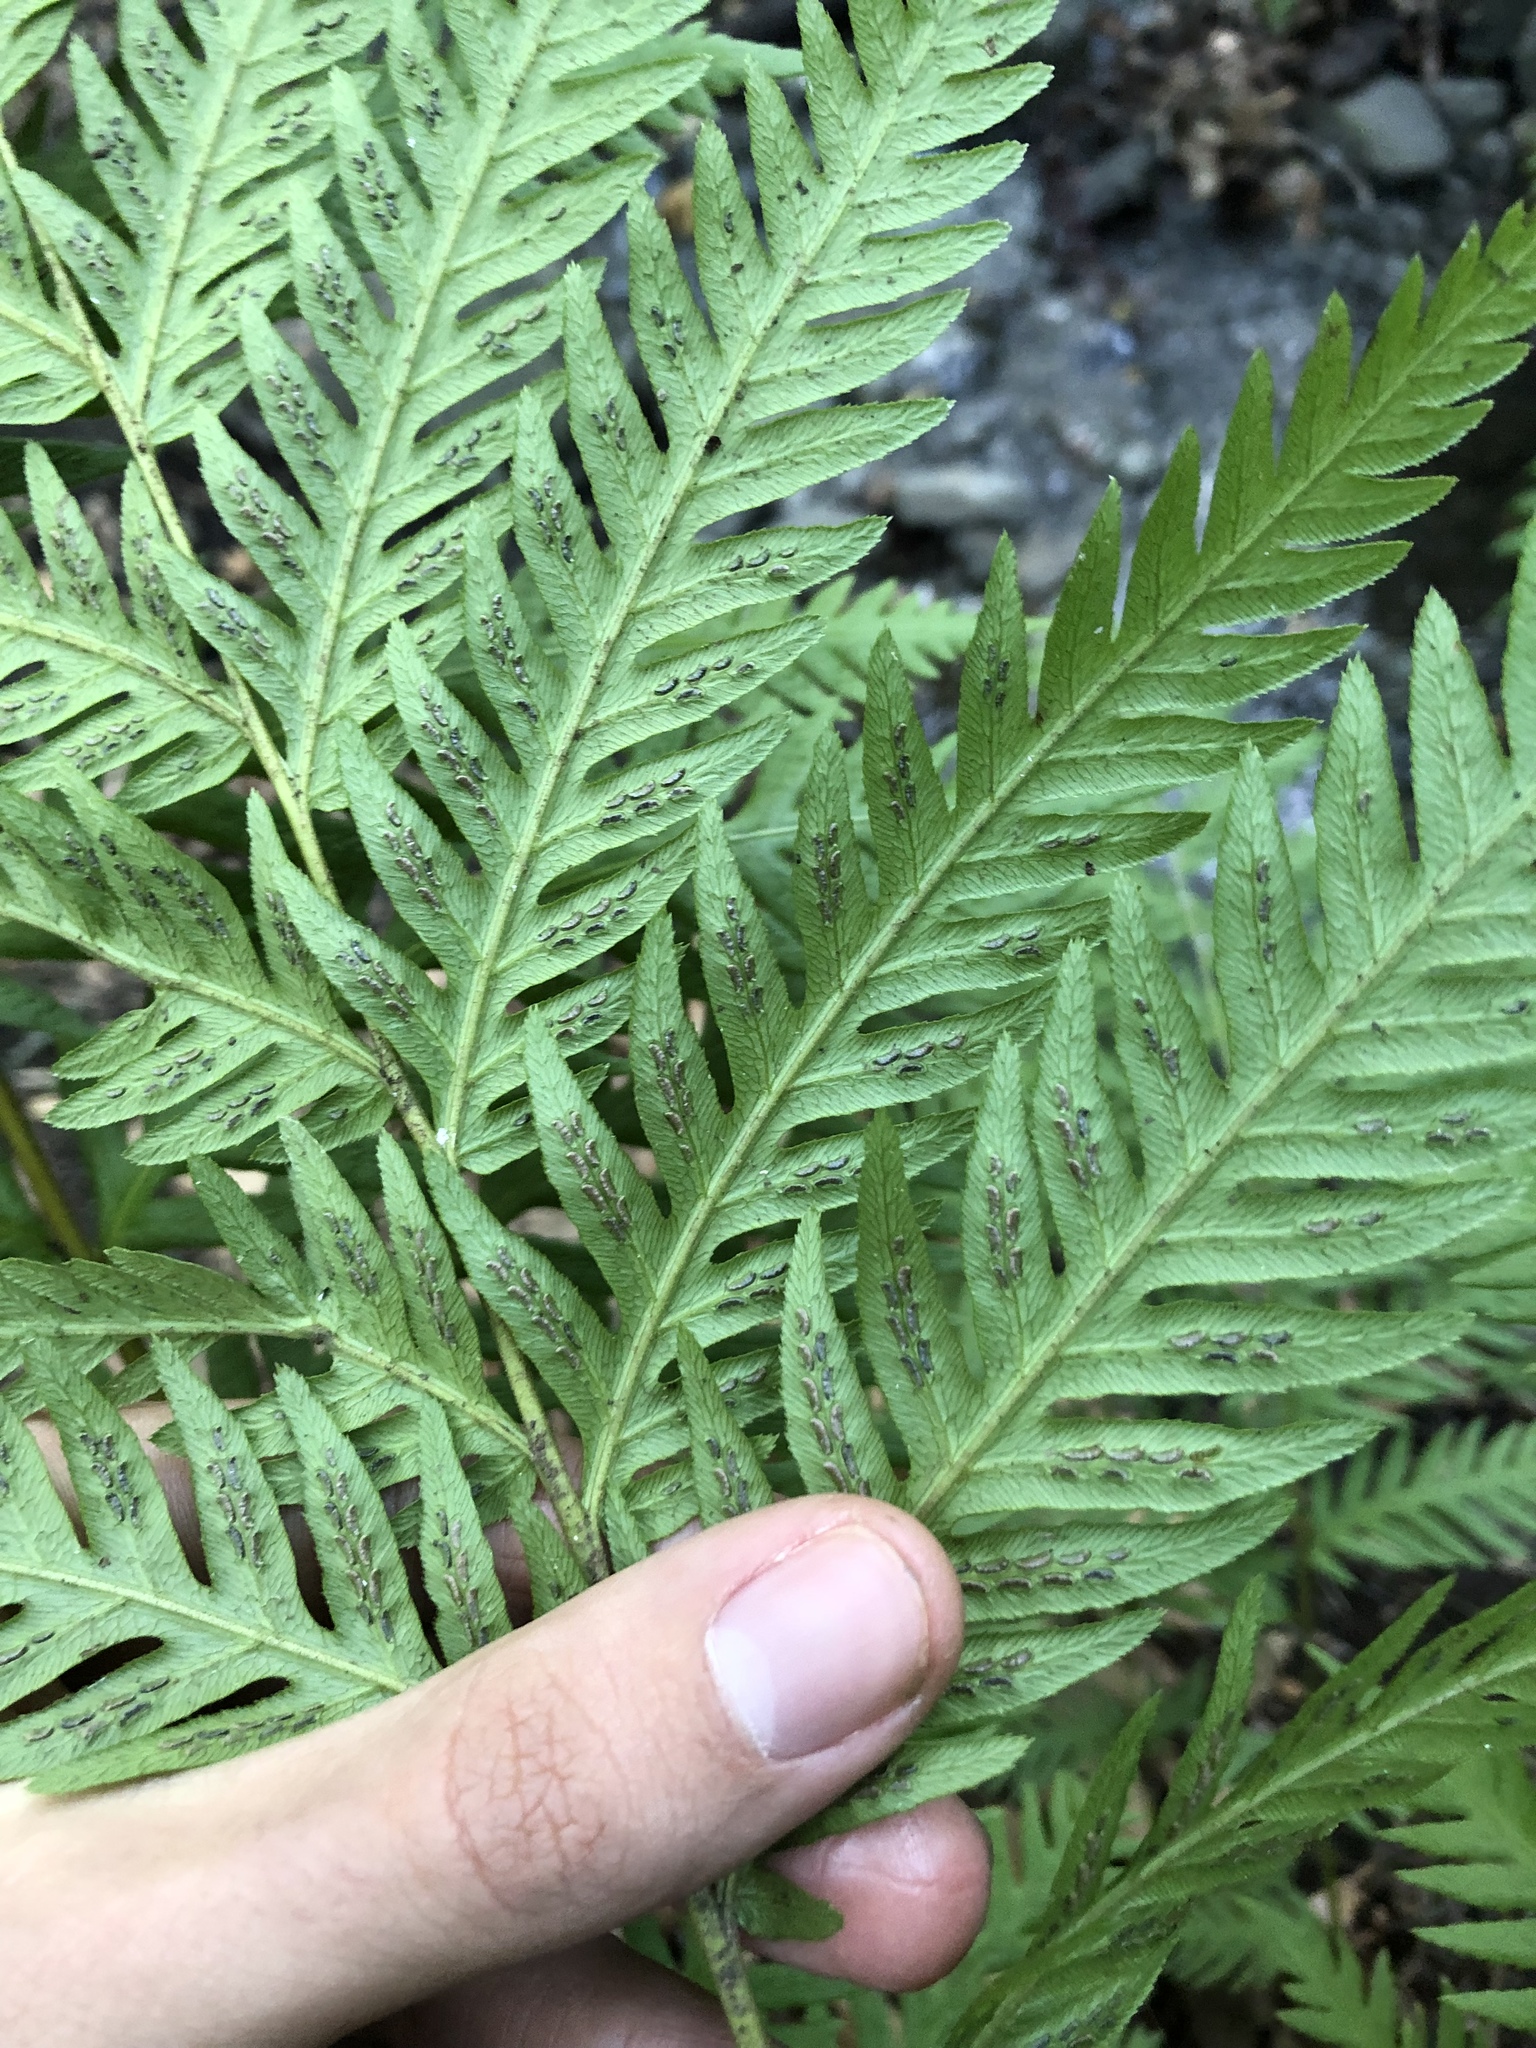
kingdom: Plantae
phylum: Tracheophyta
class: Polypodiopsida
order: Polypodiales
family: Blechnaceae
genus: Woodwardia
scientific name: Woodwardia fimbriata
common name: Giant chain fern
